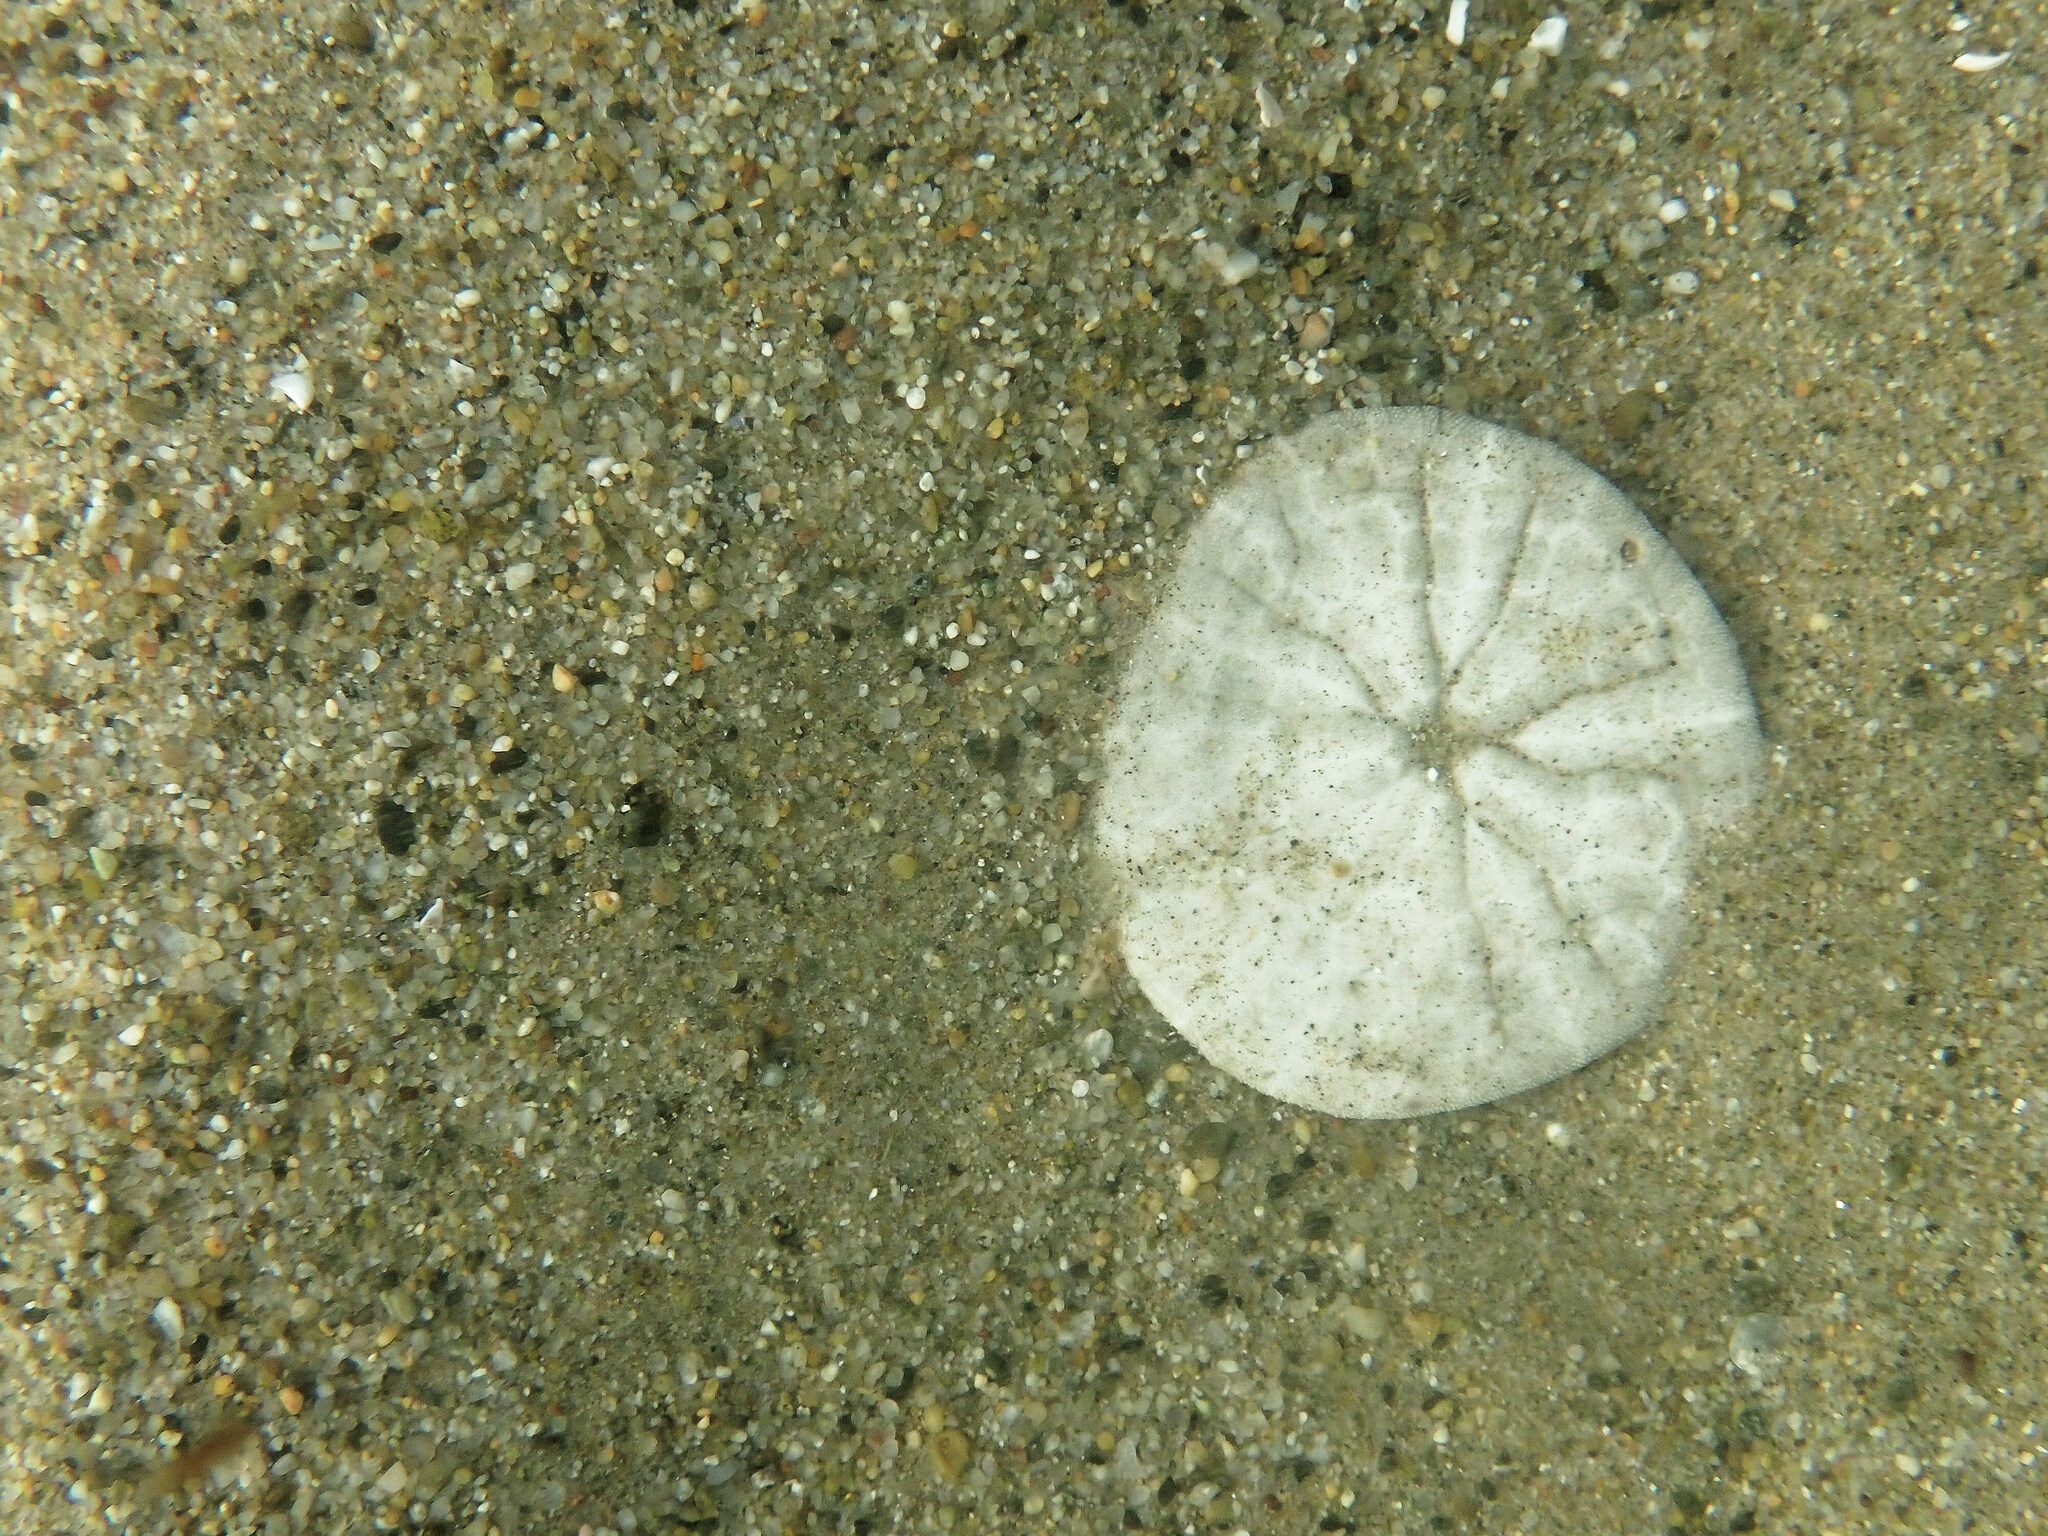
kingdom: Animalia
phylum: Echinodermata
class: Echinoidea
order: Echinolampadacea
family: Dendrasteridae
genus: Dendraster
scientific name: Dendraster excentricus
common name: Eccentric sand dollar sea urchin
